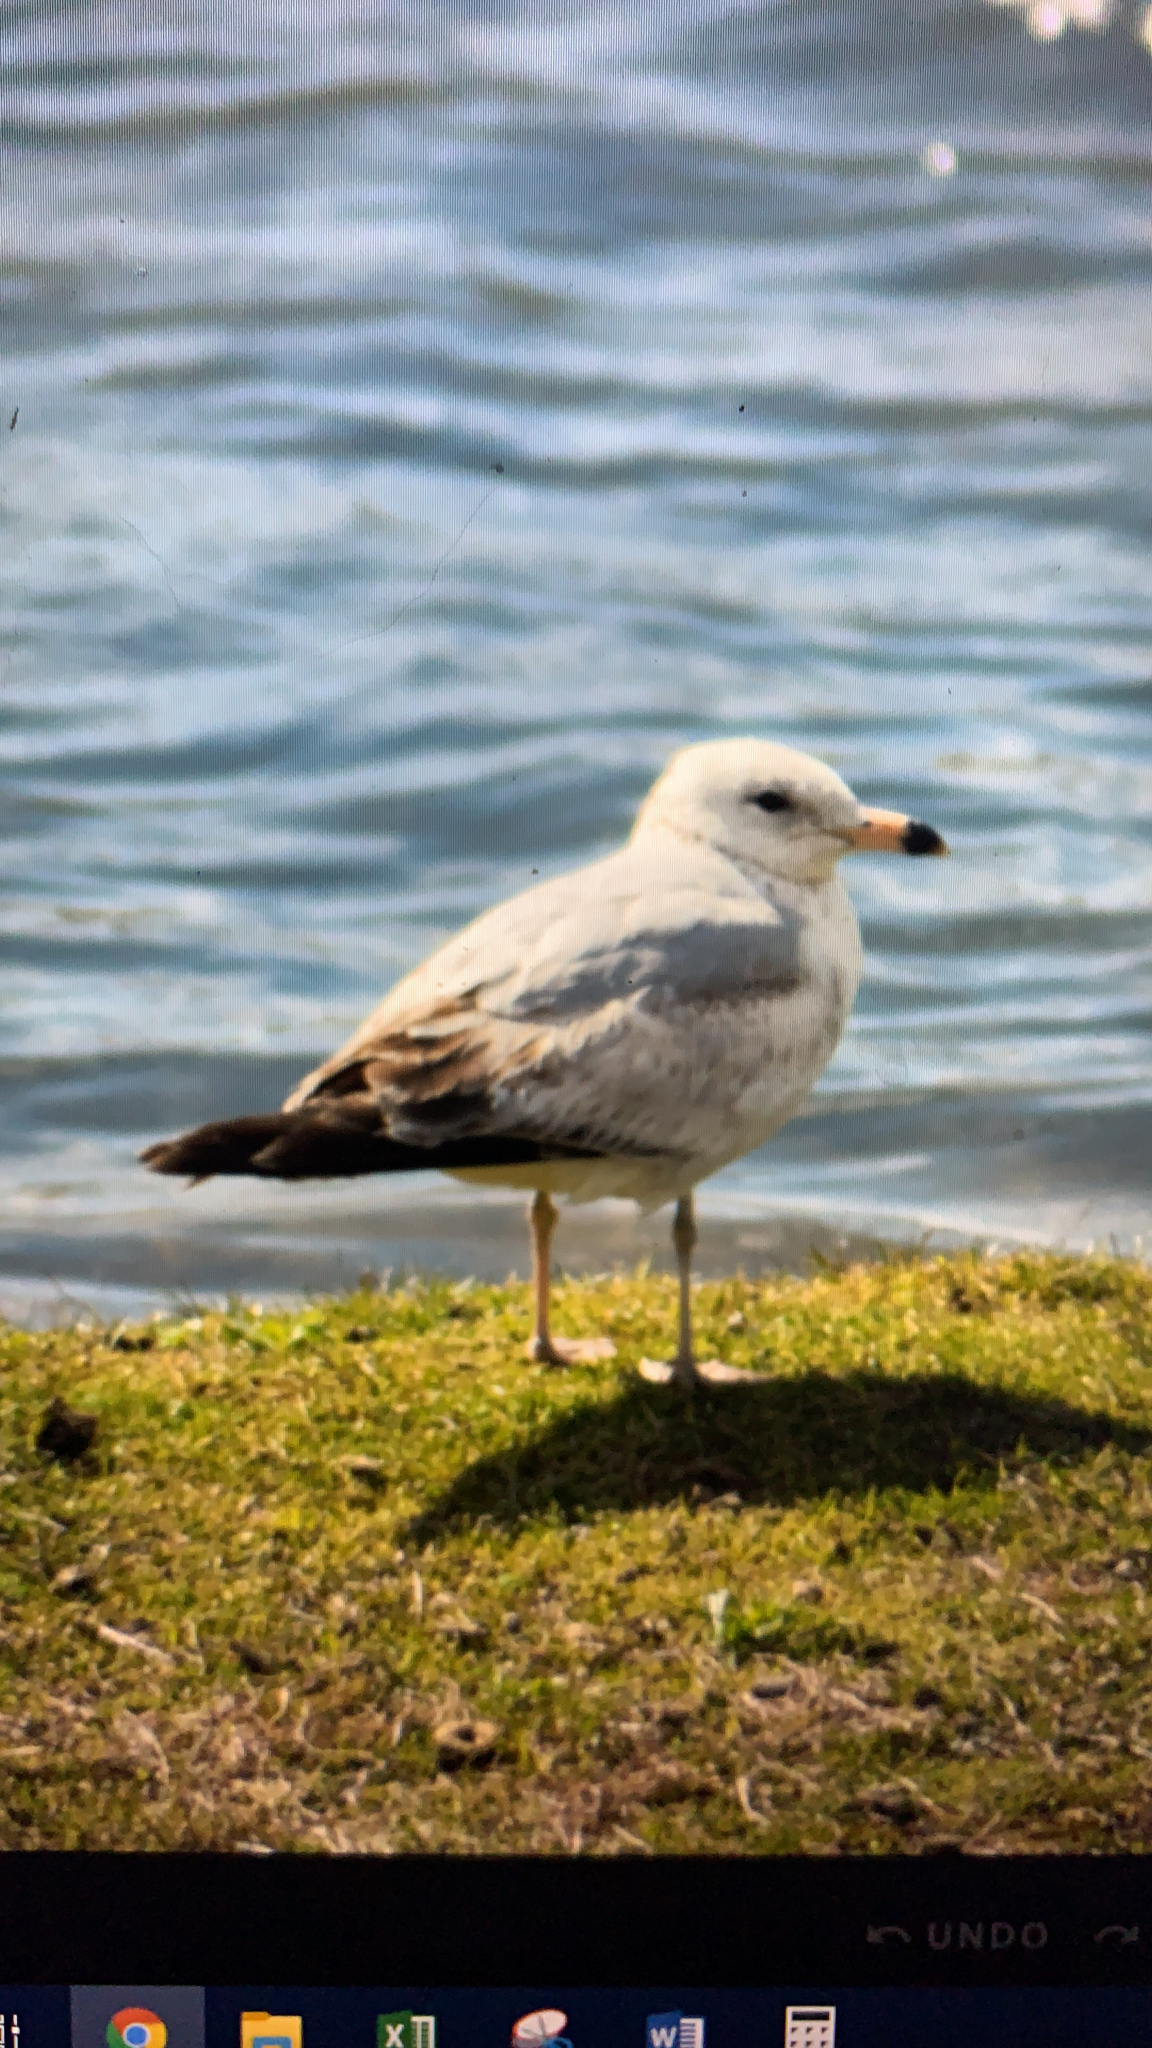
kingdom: Animalia
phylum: Chordata
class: Aves
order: Charadriiformes
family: Laridae
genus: Larus
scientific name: Larus delawarensis
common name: Ring-billed gull
